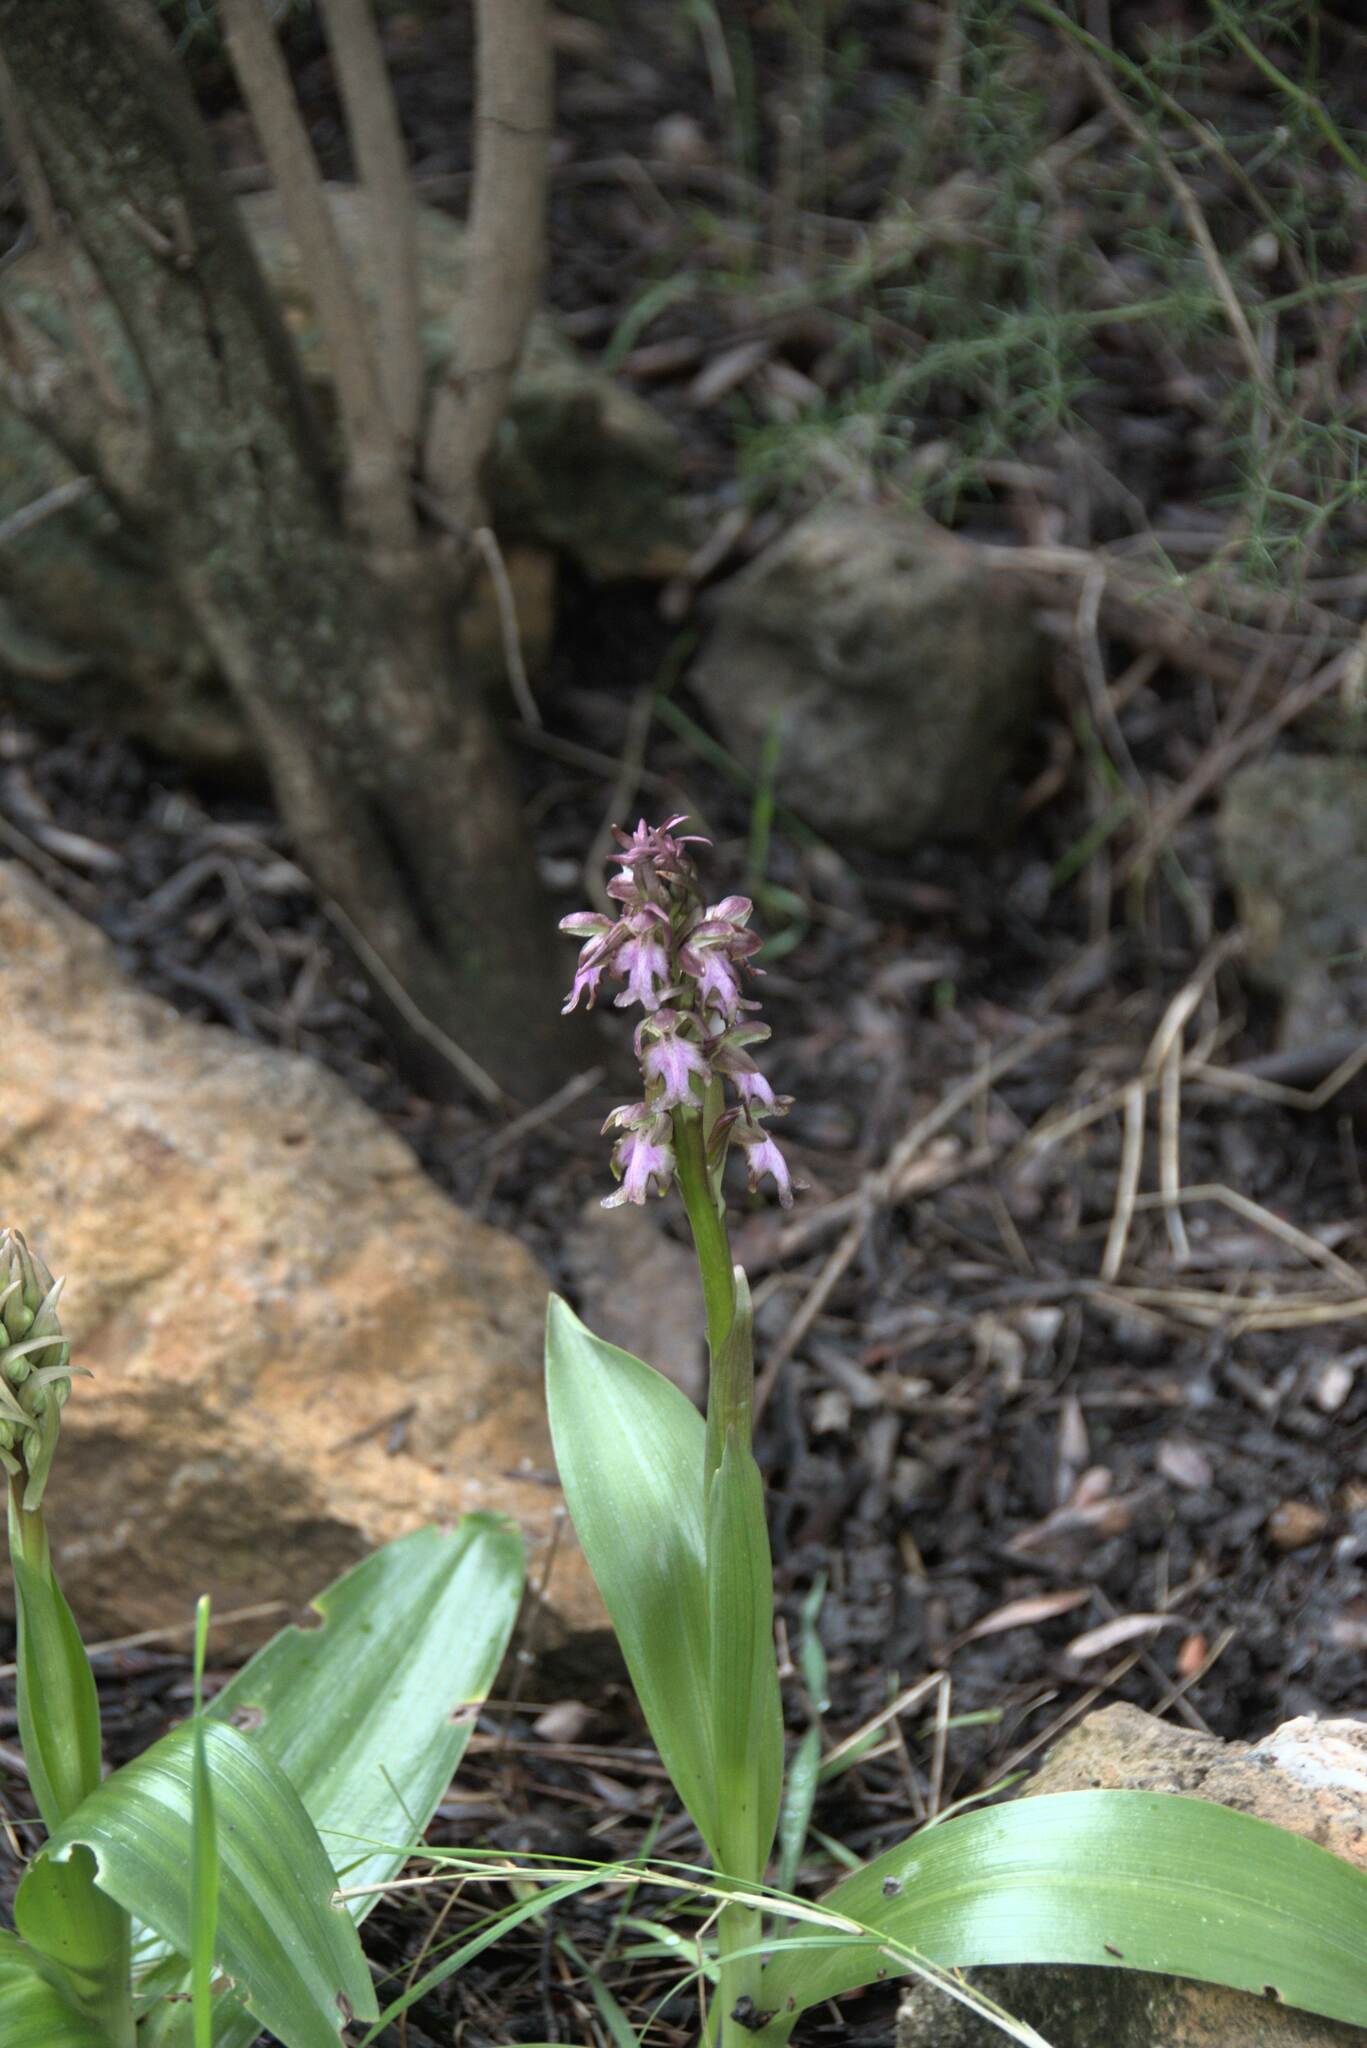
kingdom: Plantae
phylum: Tracheophyta
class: Liliopsida
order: Asparagales
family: Orchidaceae
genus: Himantoglossum
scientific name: Himantoglossum robertianum
